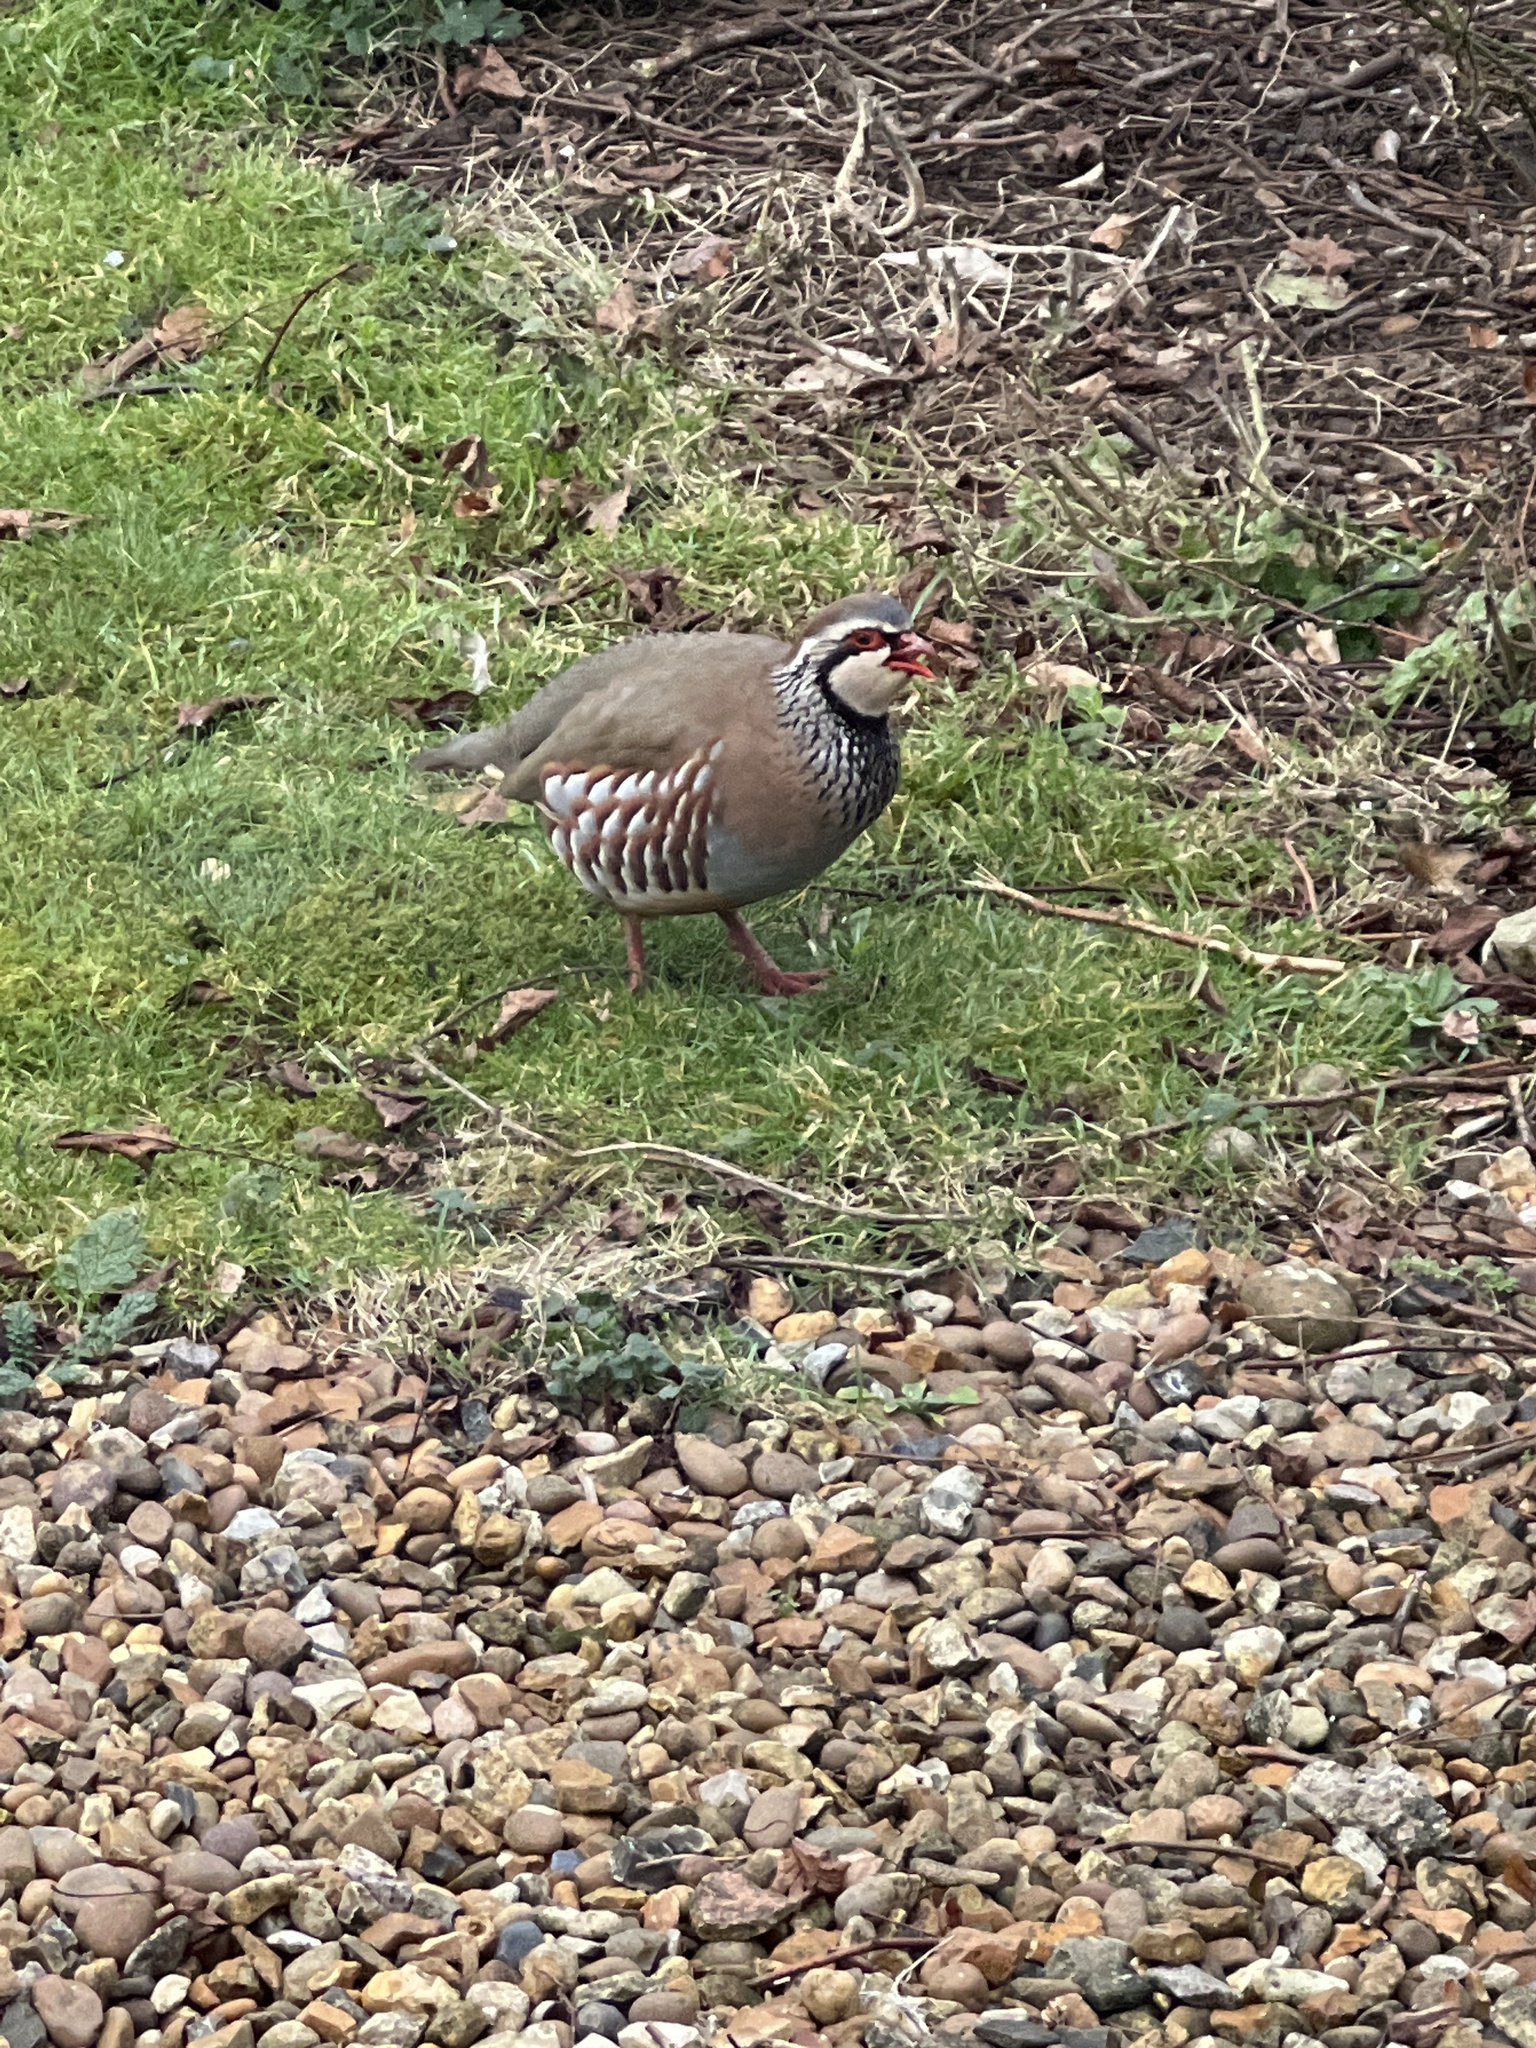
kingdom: Animalia
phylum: Chordata
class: Aves
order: Galliformes
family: Phasianidae
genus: Alectoris
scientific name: Alectoris rufa
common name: Red-legged partridge
